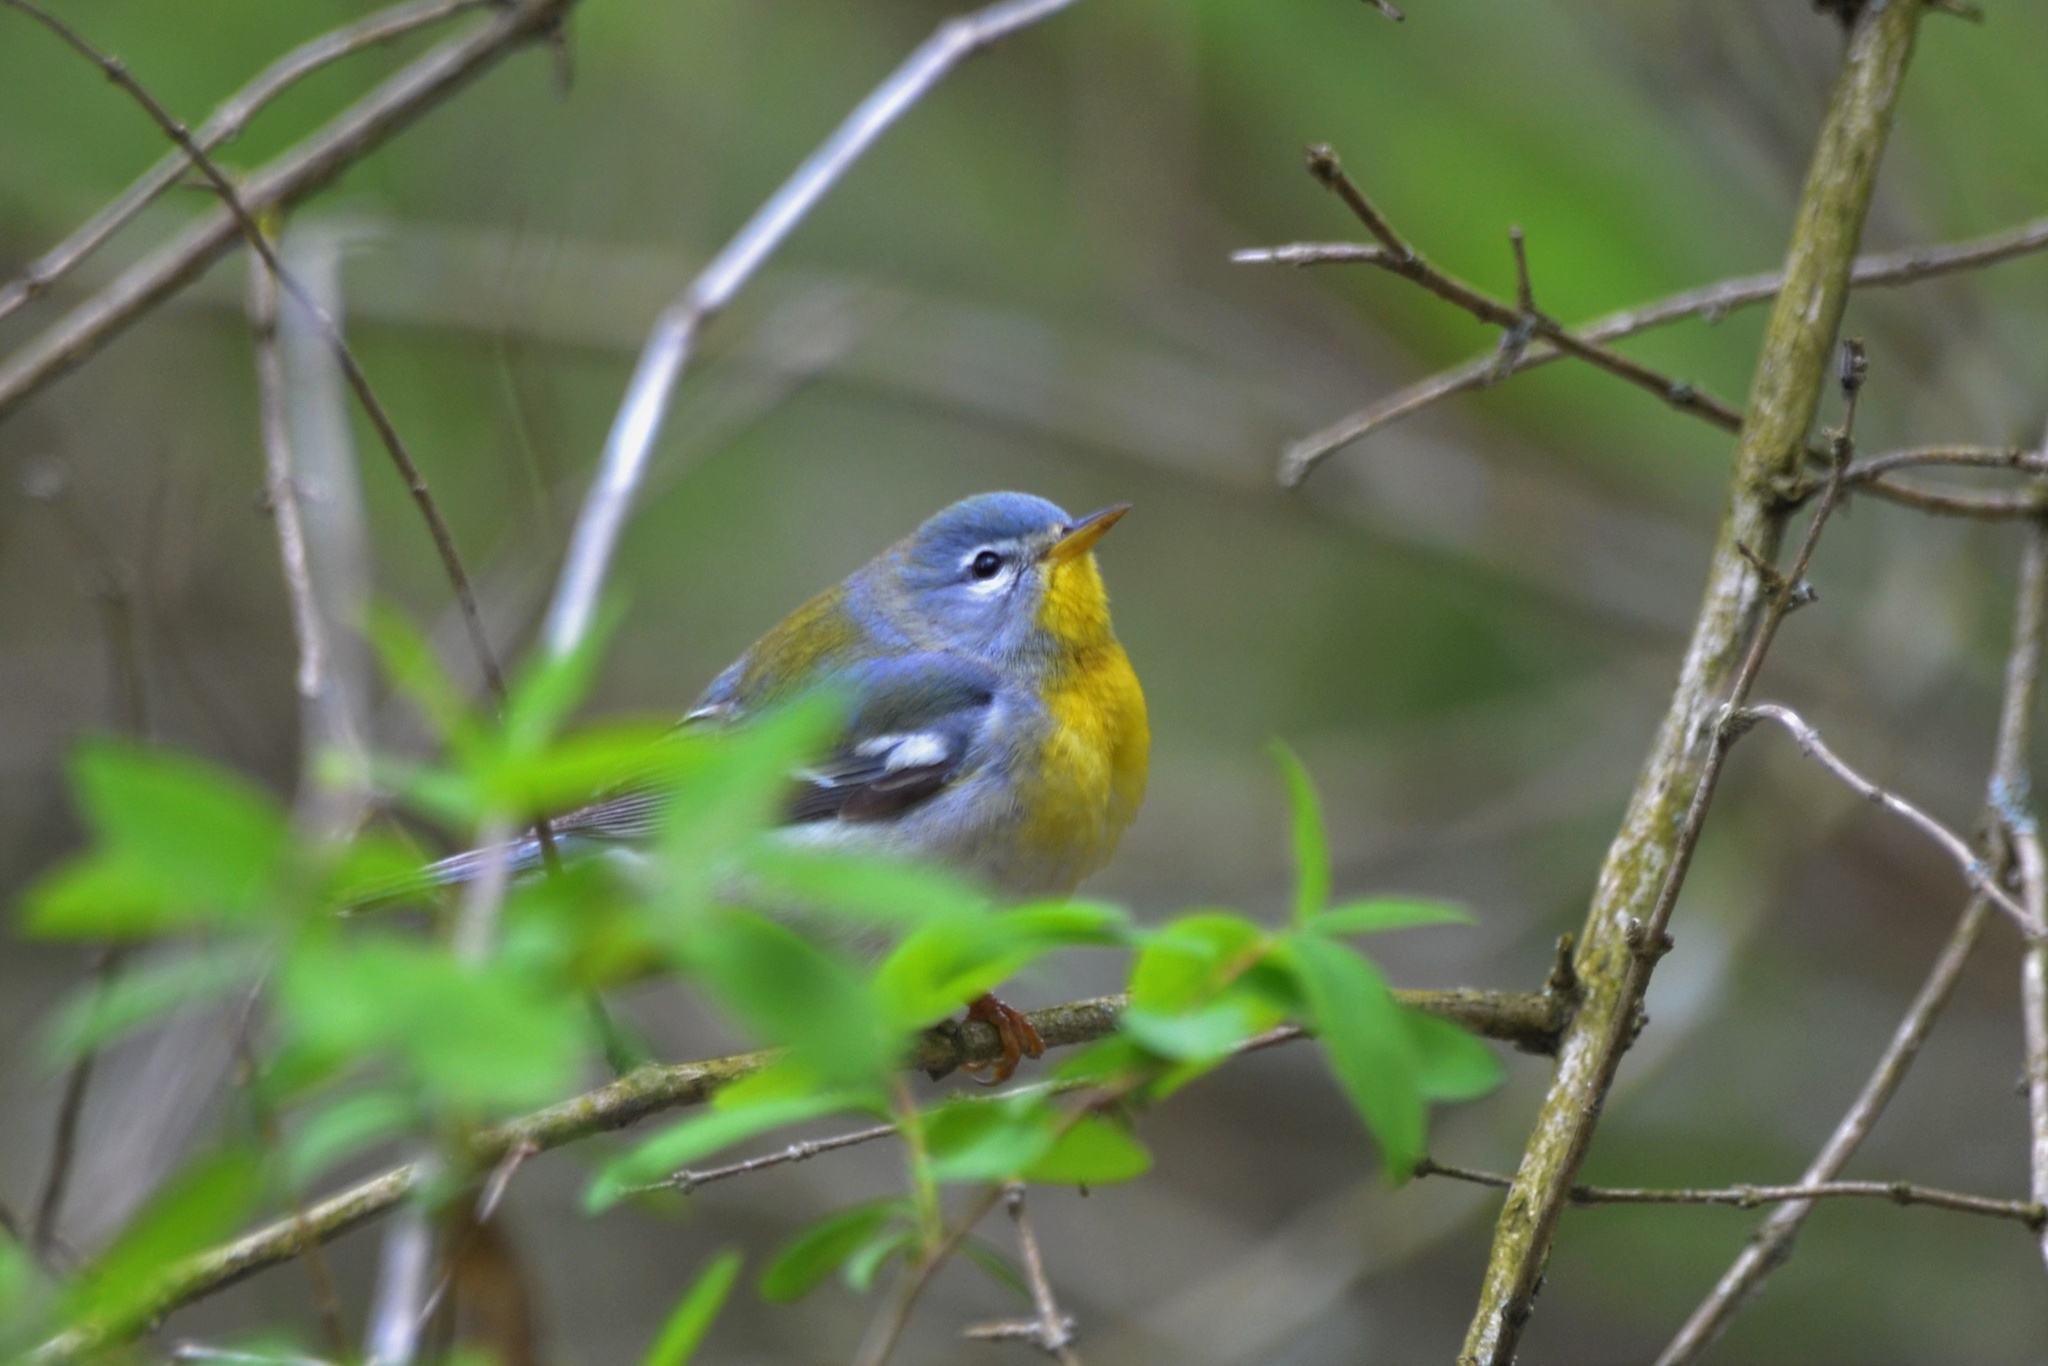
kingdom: Animalia
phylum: Chordata
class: Aves
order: Passeriformes
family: Parulidae
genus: Setophaga
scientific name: Setophaga americana
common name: Northern parula
